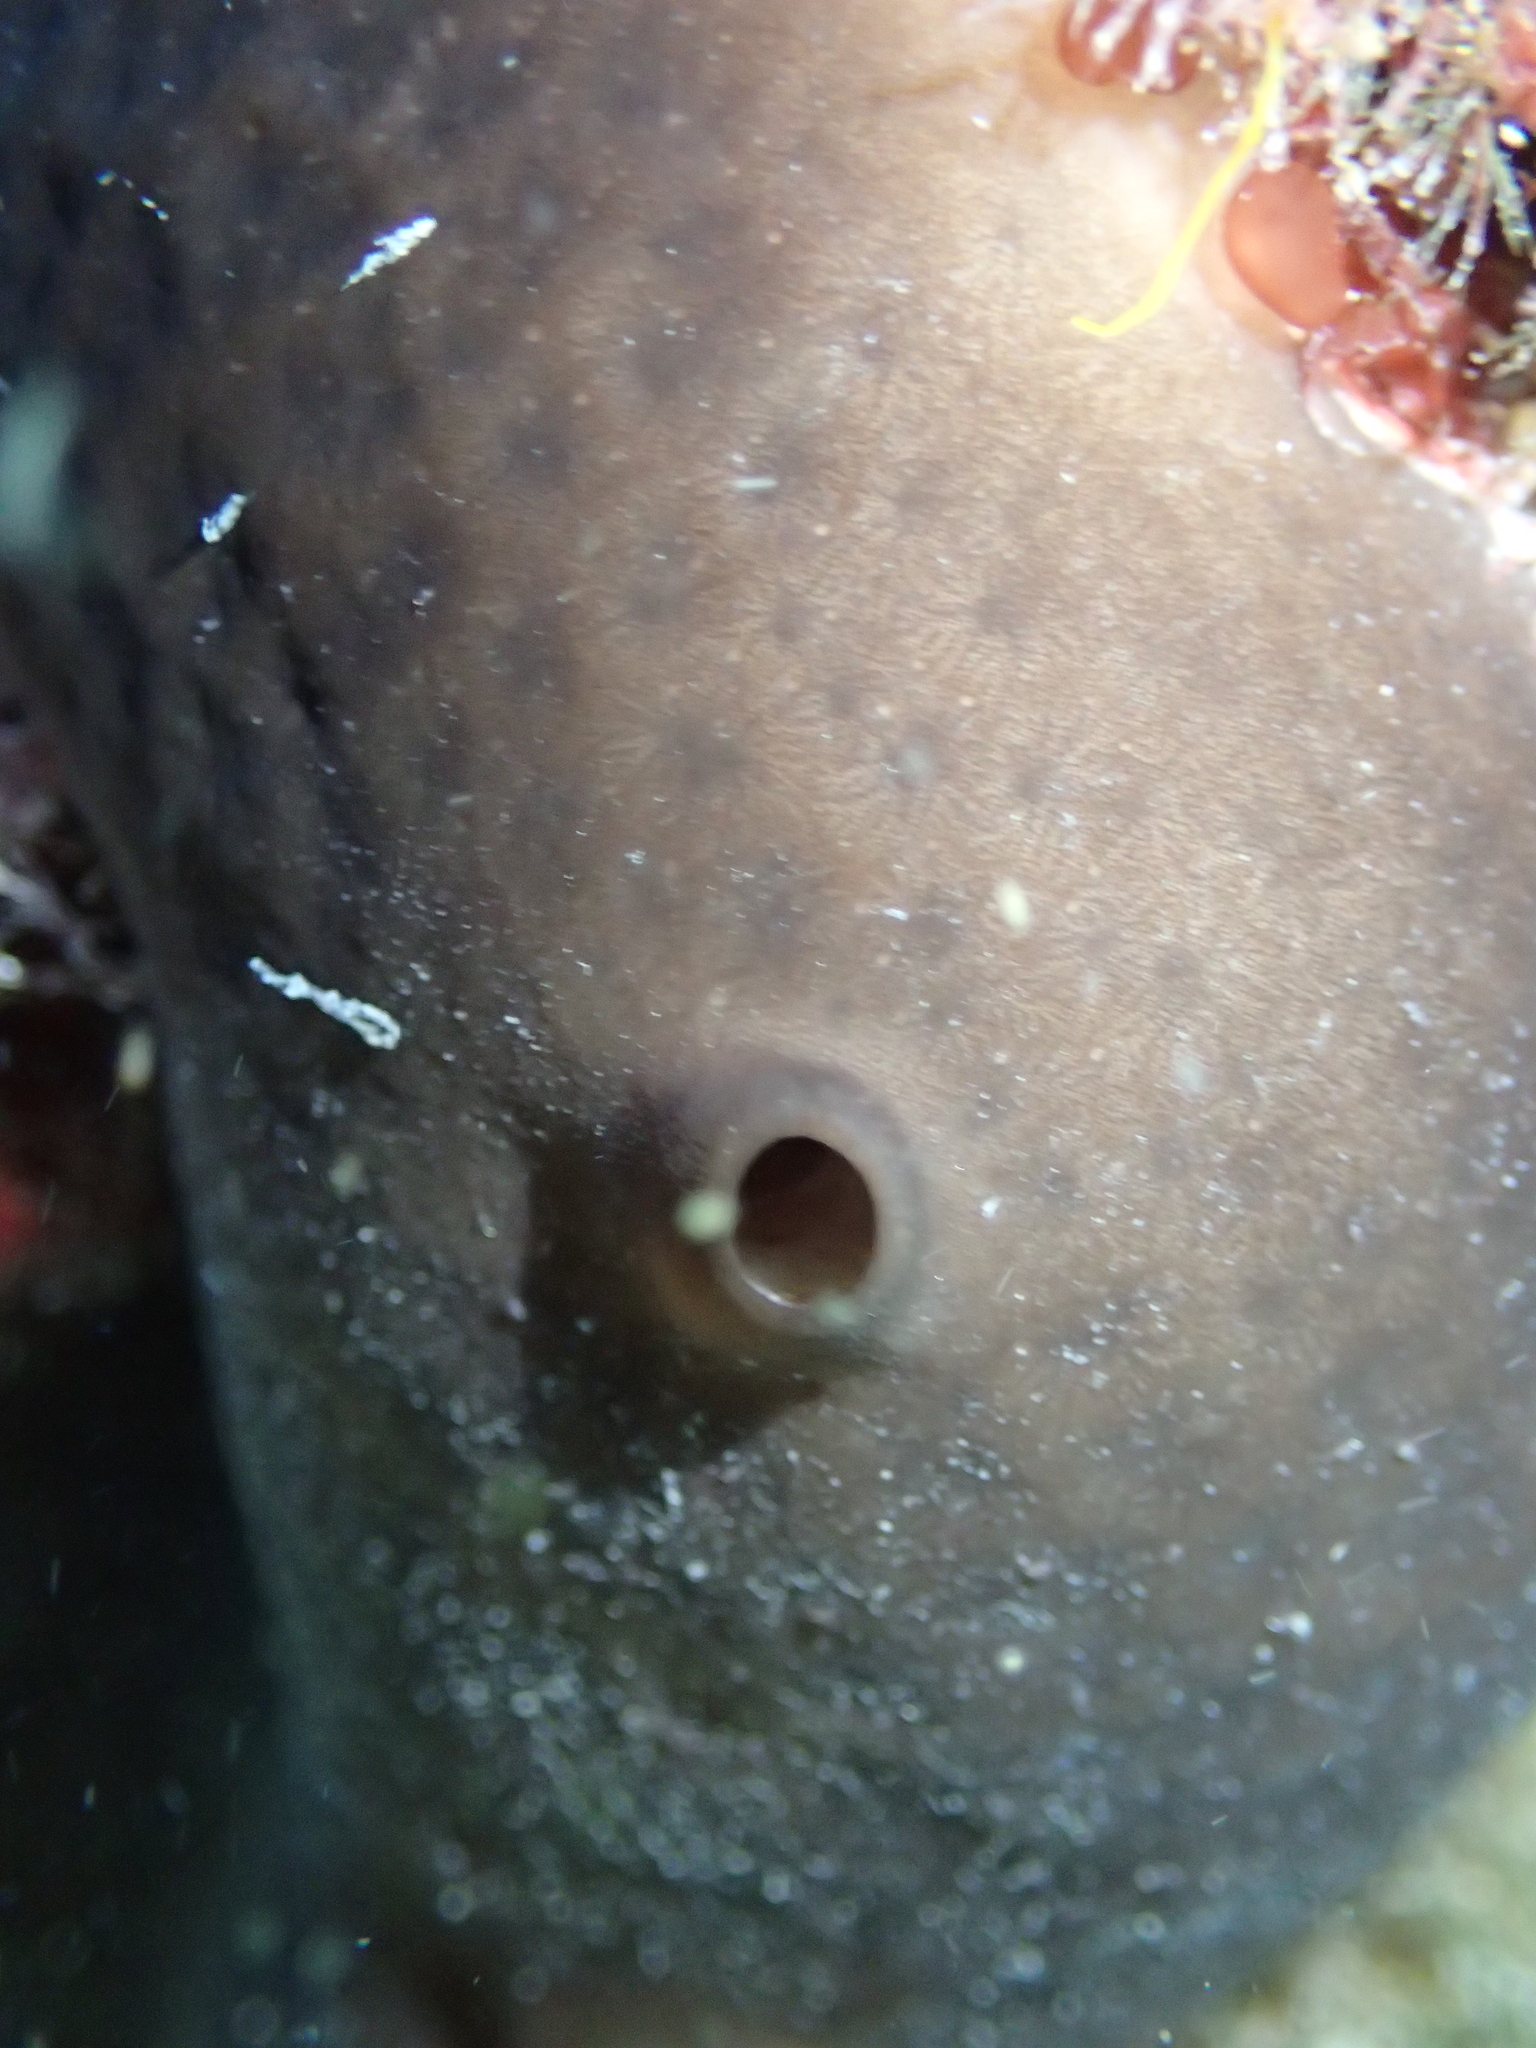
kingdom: Animalia
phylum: Porifera
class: Demospongiae
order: Chondrosiida
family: Chondrosiidae
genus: Chondrosia
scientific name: Chondrosia reniformis
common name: Chicken liver sponge
